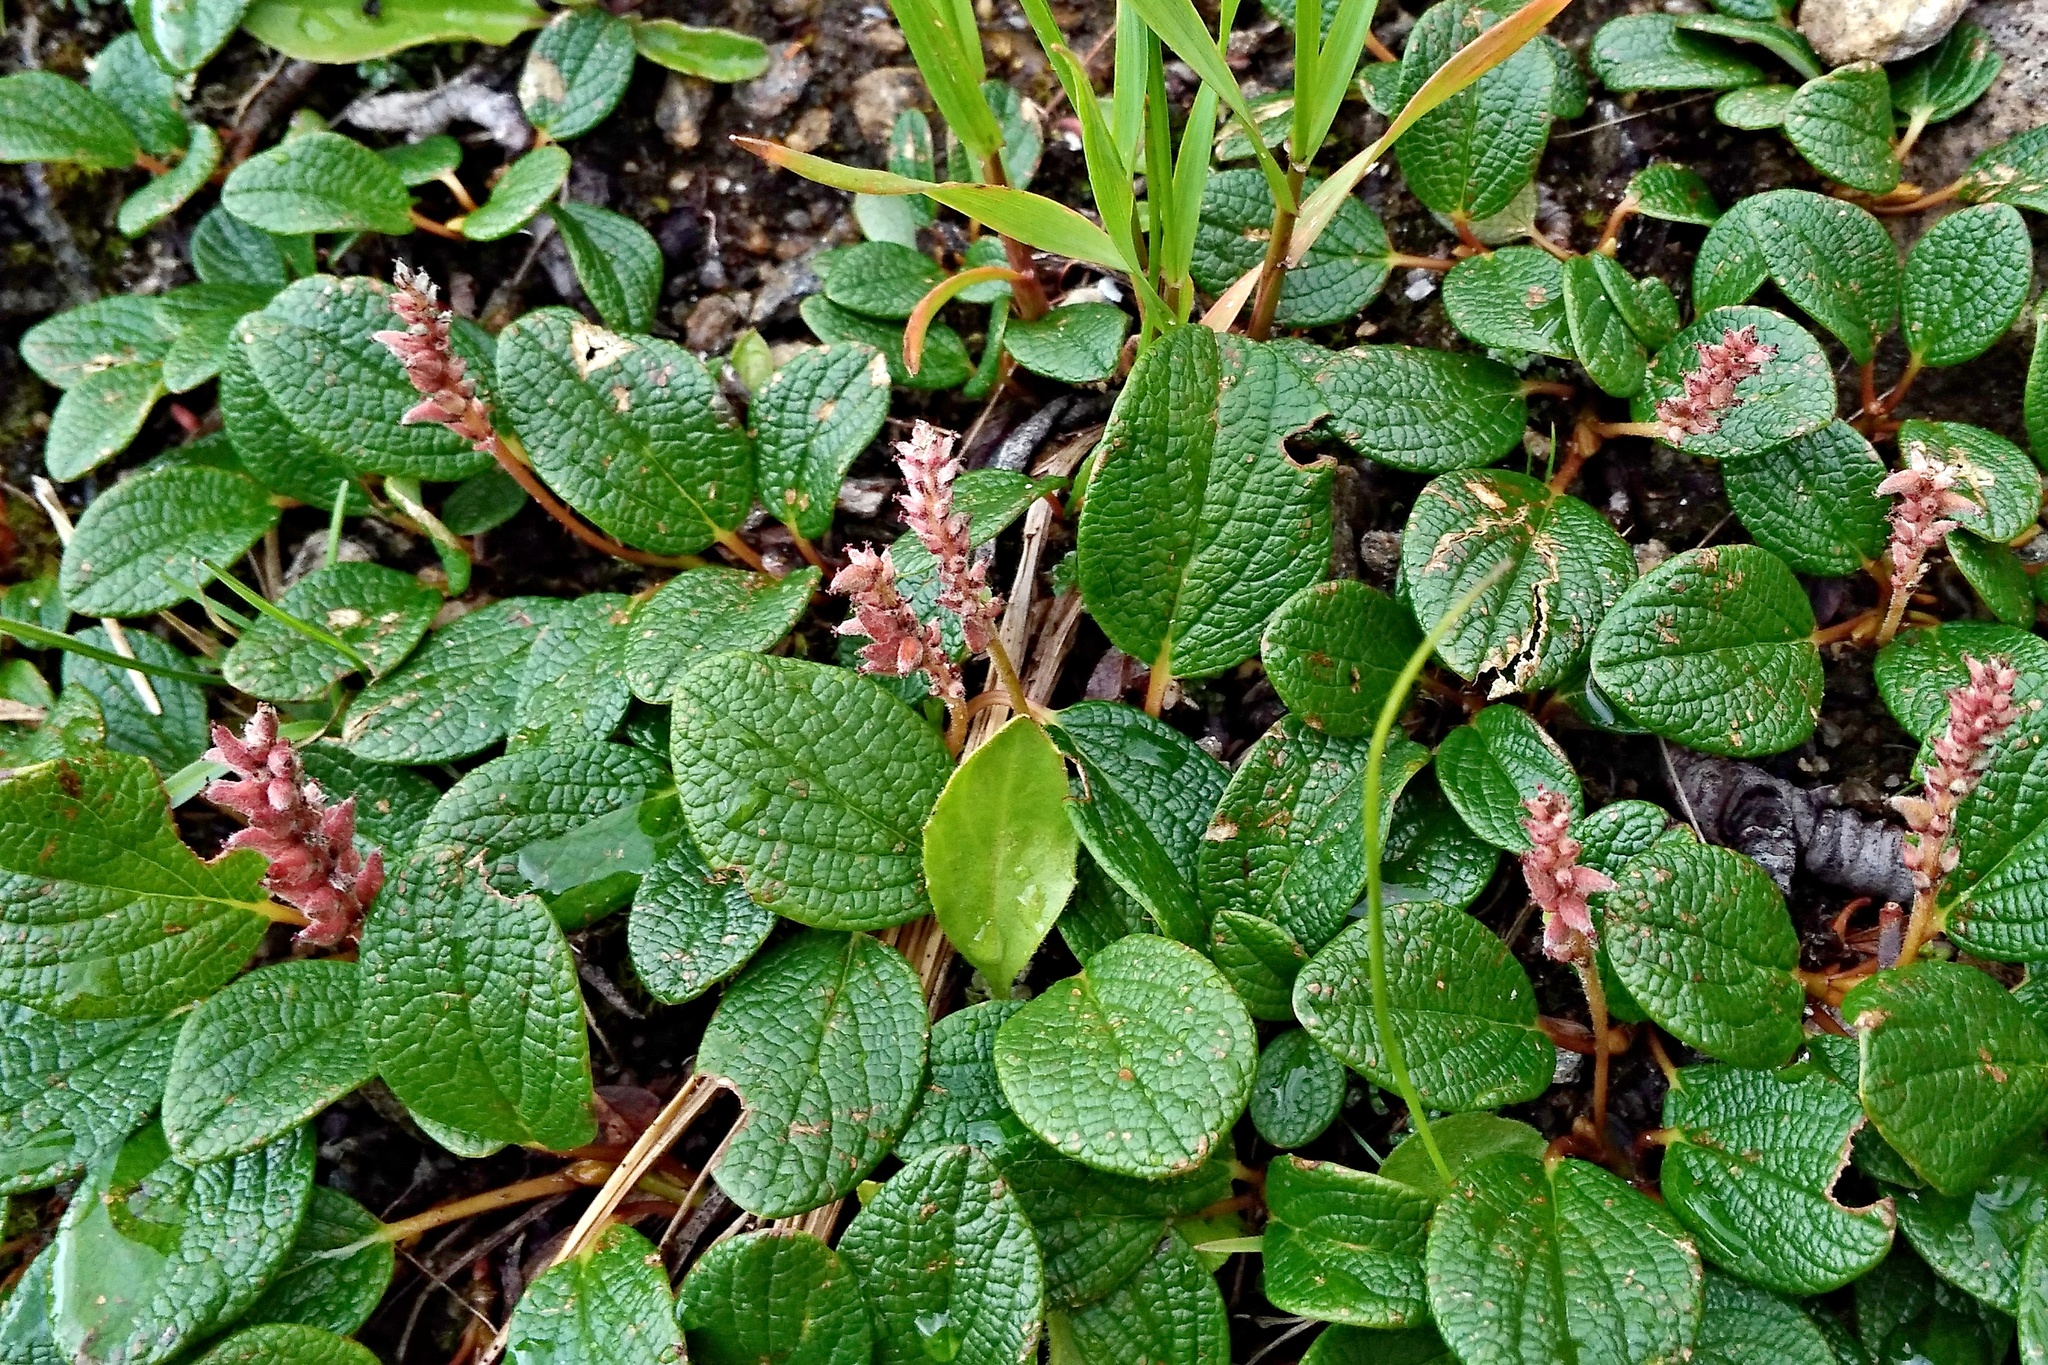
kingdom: Plantae
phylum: Tracheophyta
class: Magnoliopsida
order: Malpighiales
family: Salicaceae
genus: Salix
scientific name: Salix reticulata
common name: Net-leaved willow
